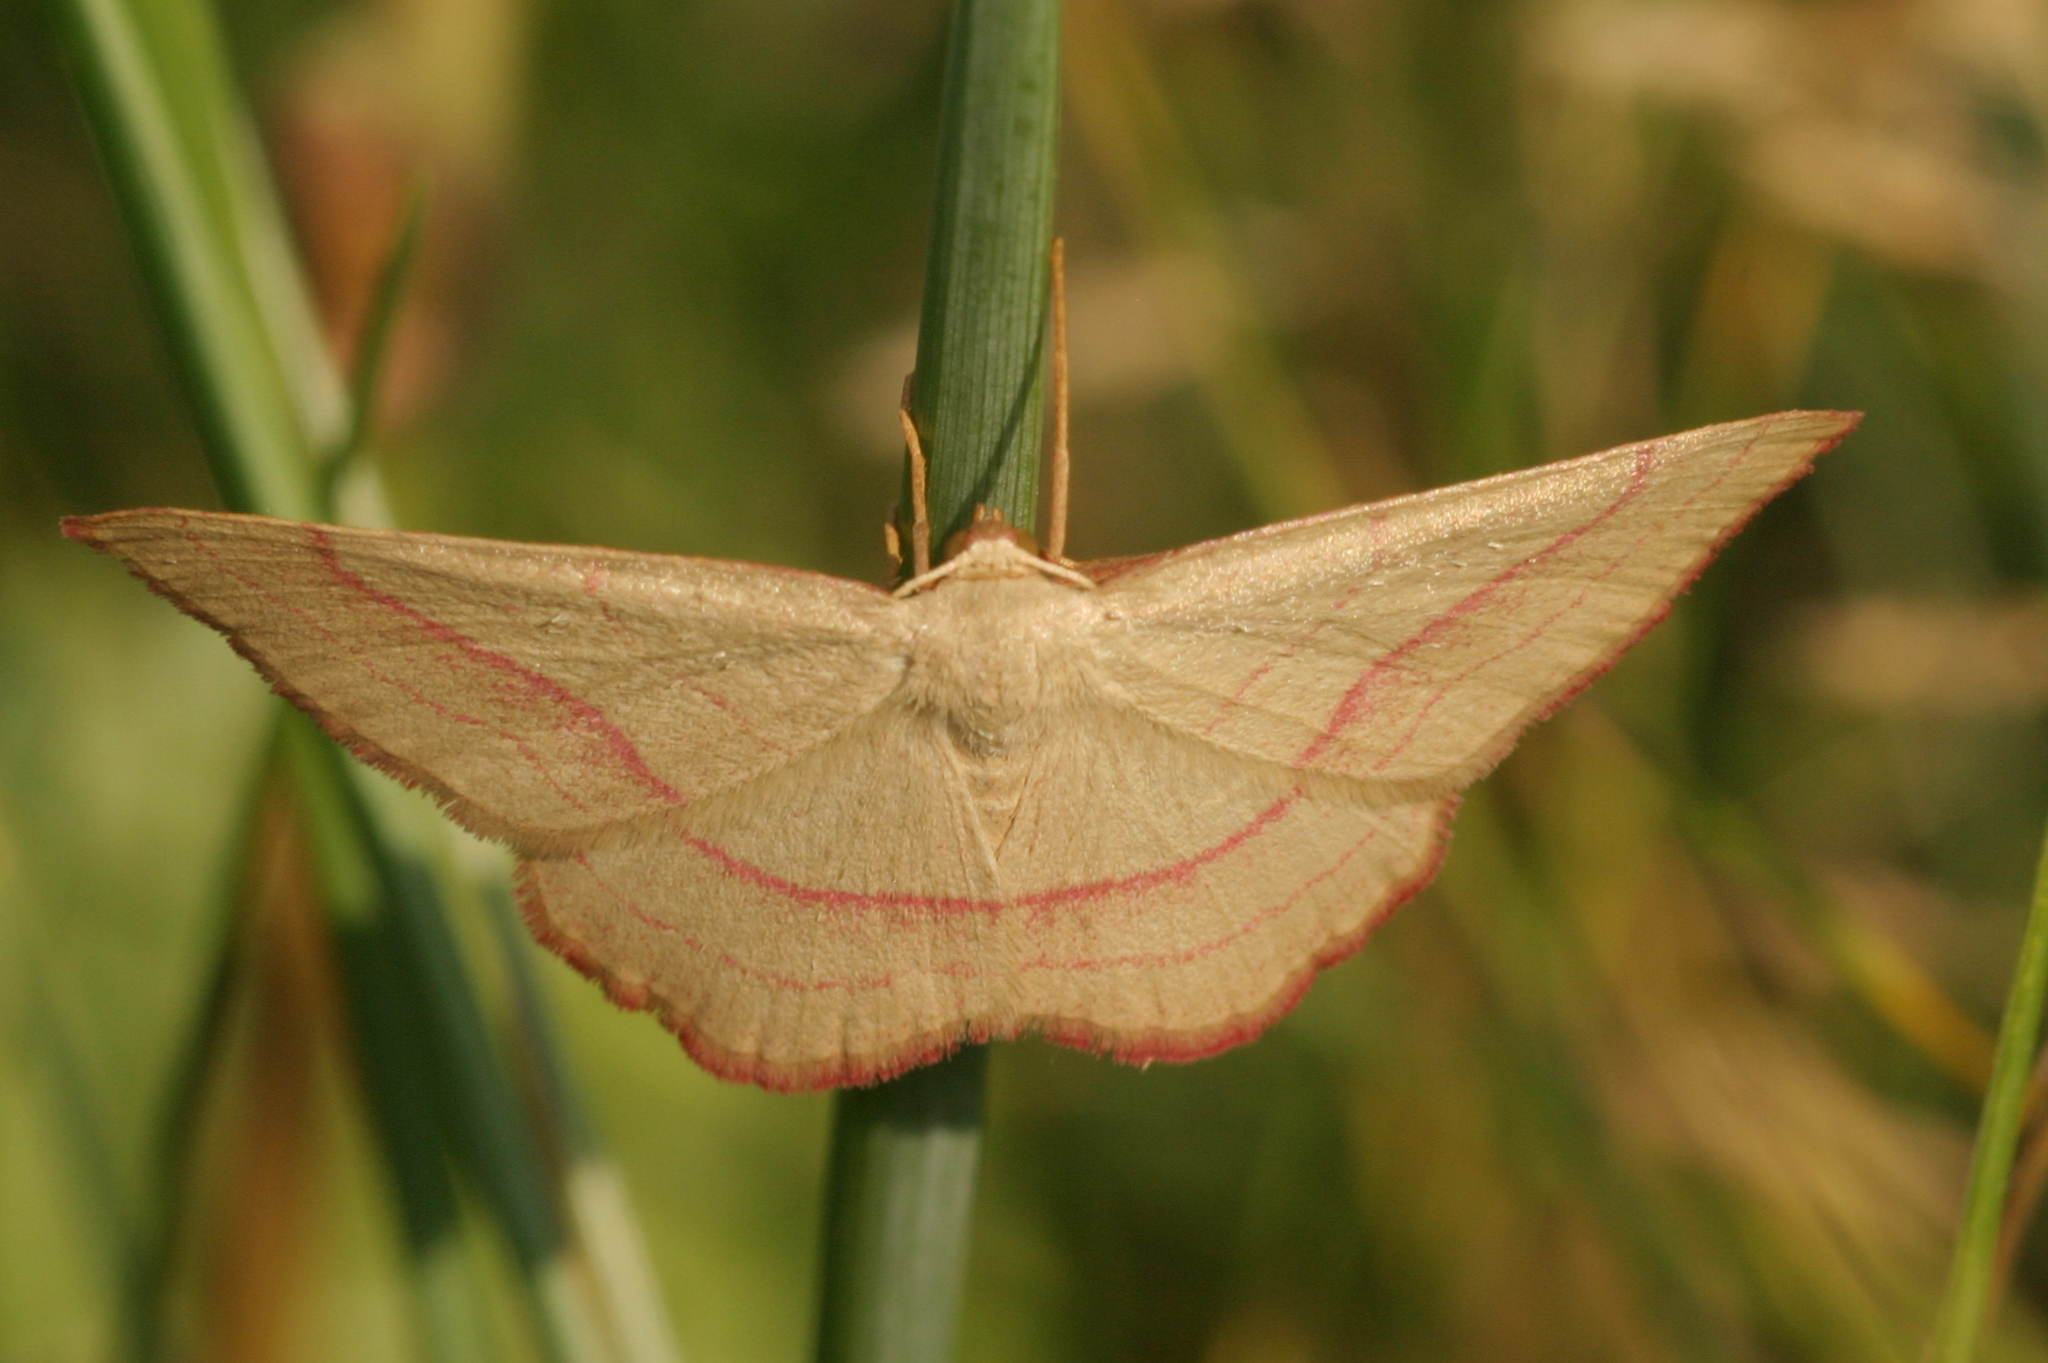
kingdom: Animalia
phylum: Arthropoda
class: Insecta
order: Lepidoptera
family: Geometridae
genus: Rhodostrophia
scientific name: Rhodostrophia vibicaria
